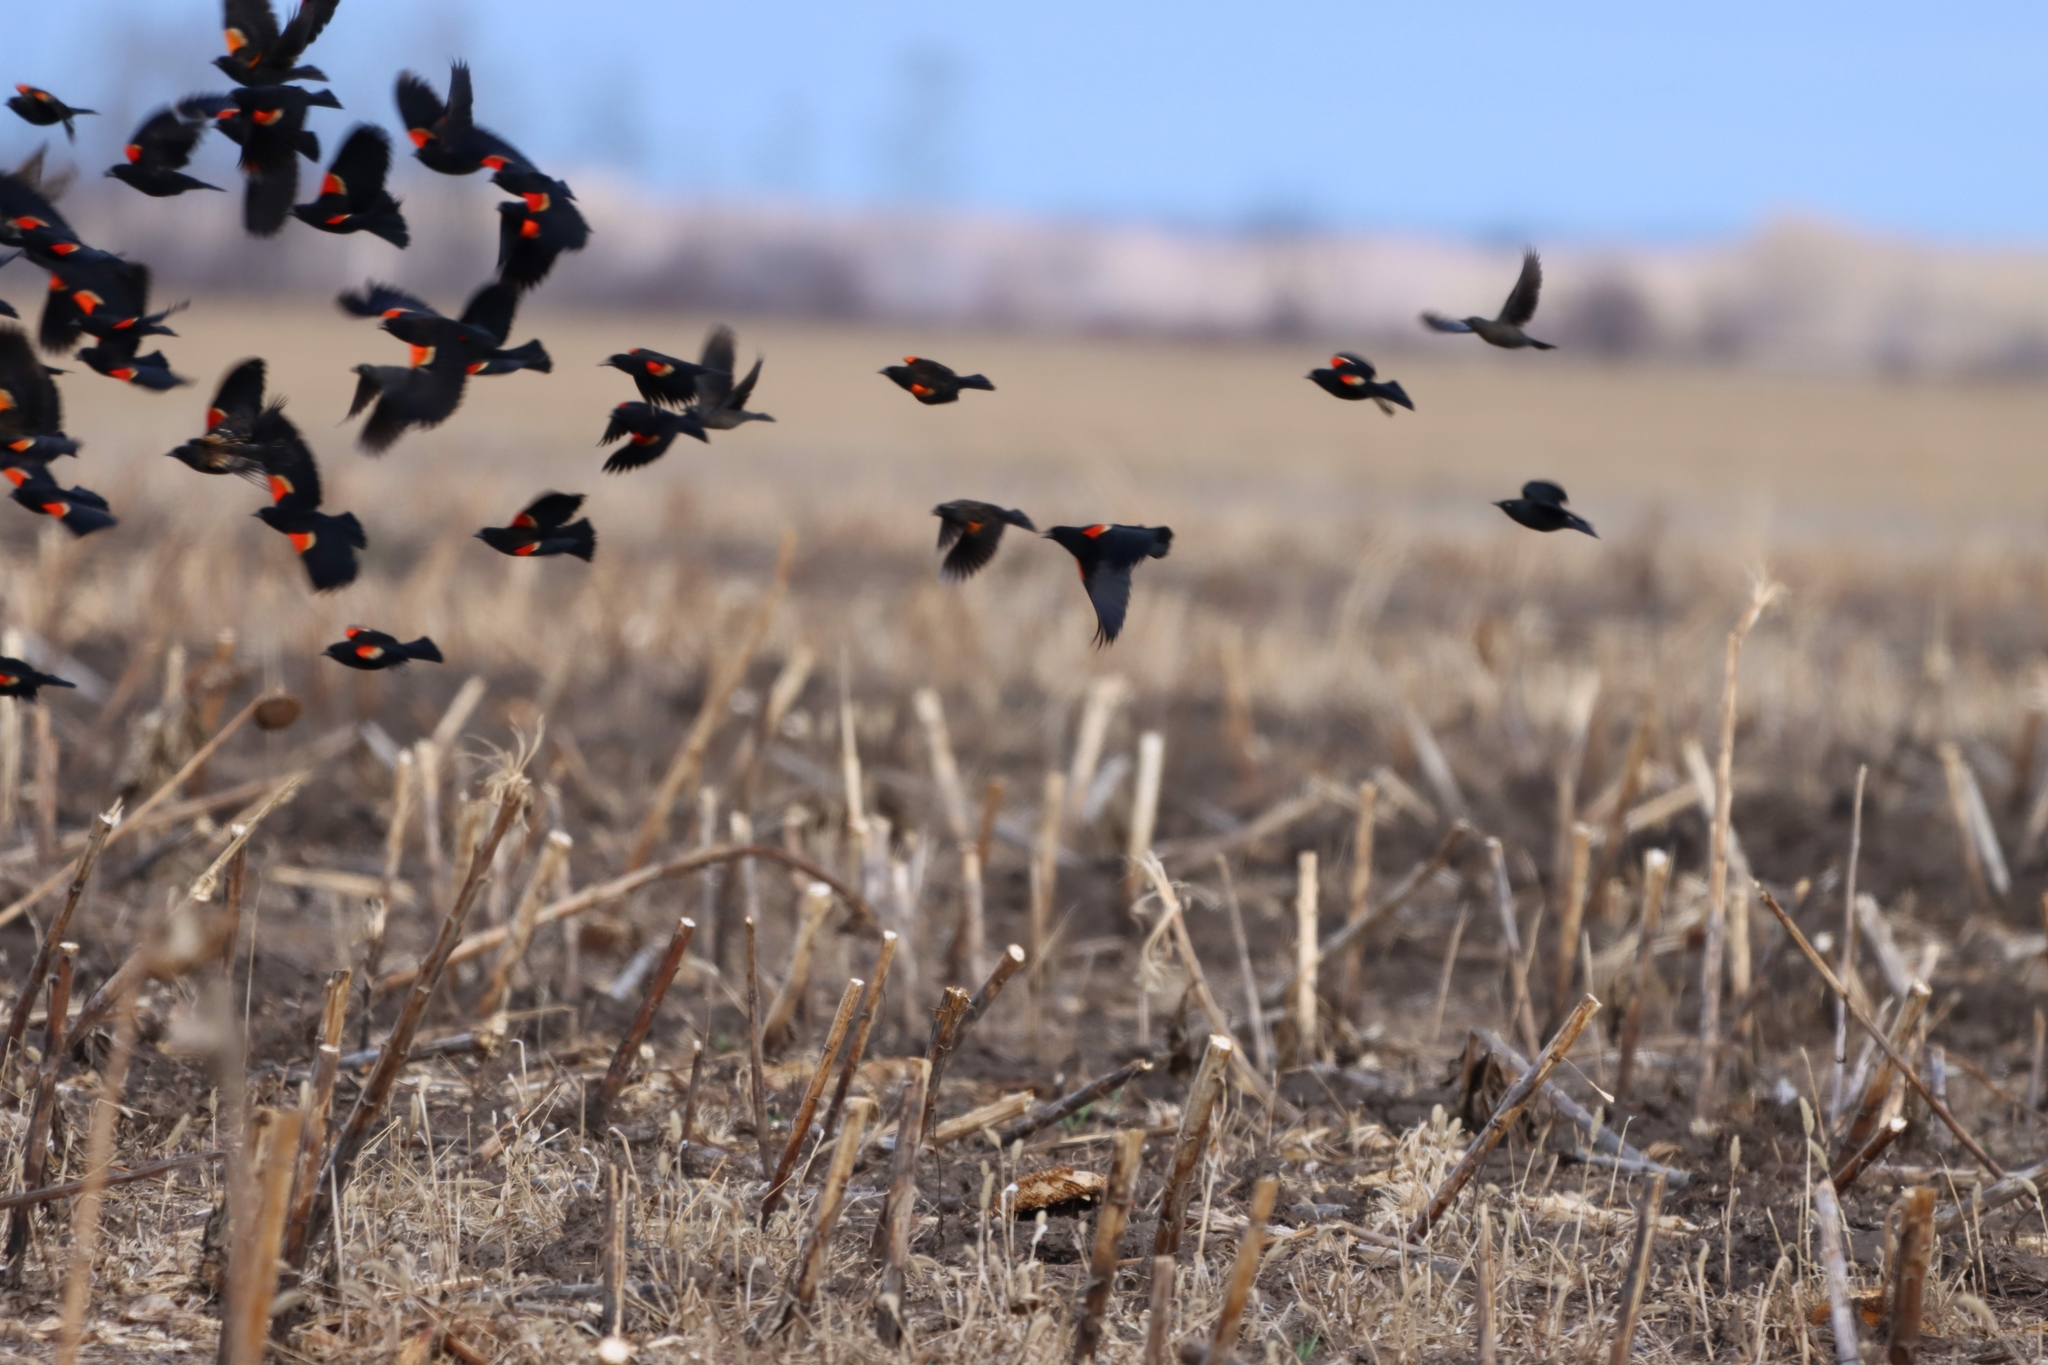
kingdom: Animalia
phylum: Chordata
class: Aves
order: Passeriformes
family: Icteridae
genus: Agelaius
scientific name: Agelaius phoeniceus
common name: Red-winged blackbird
